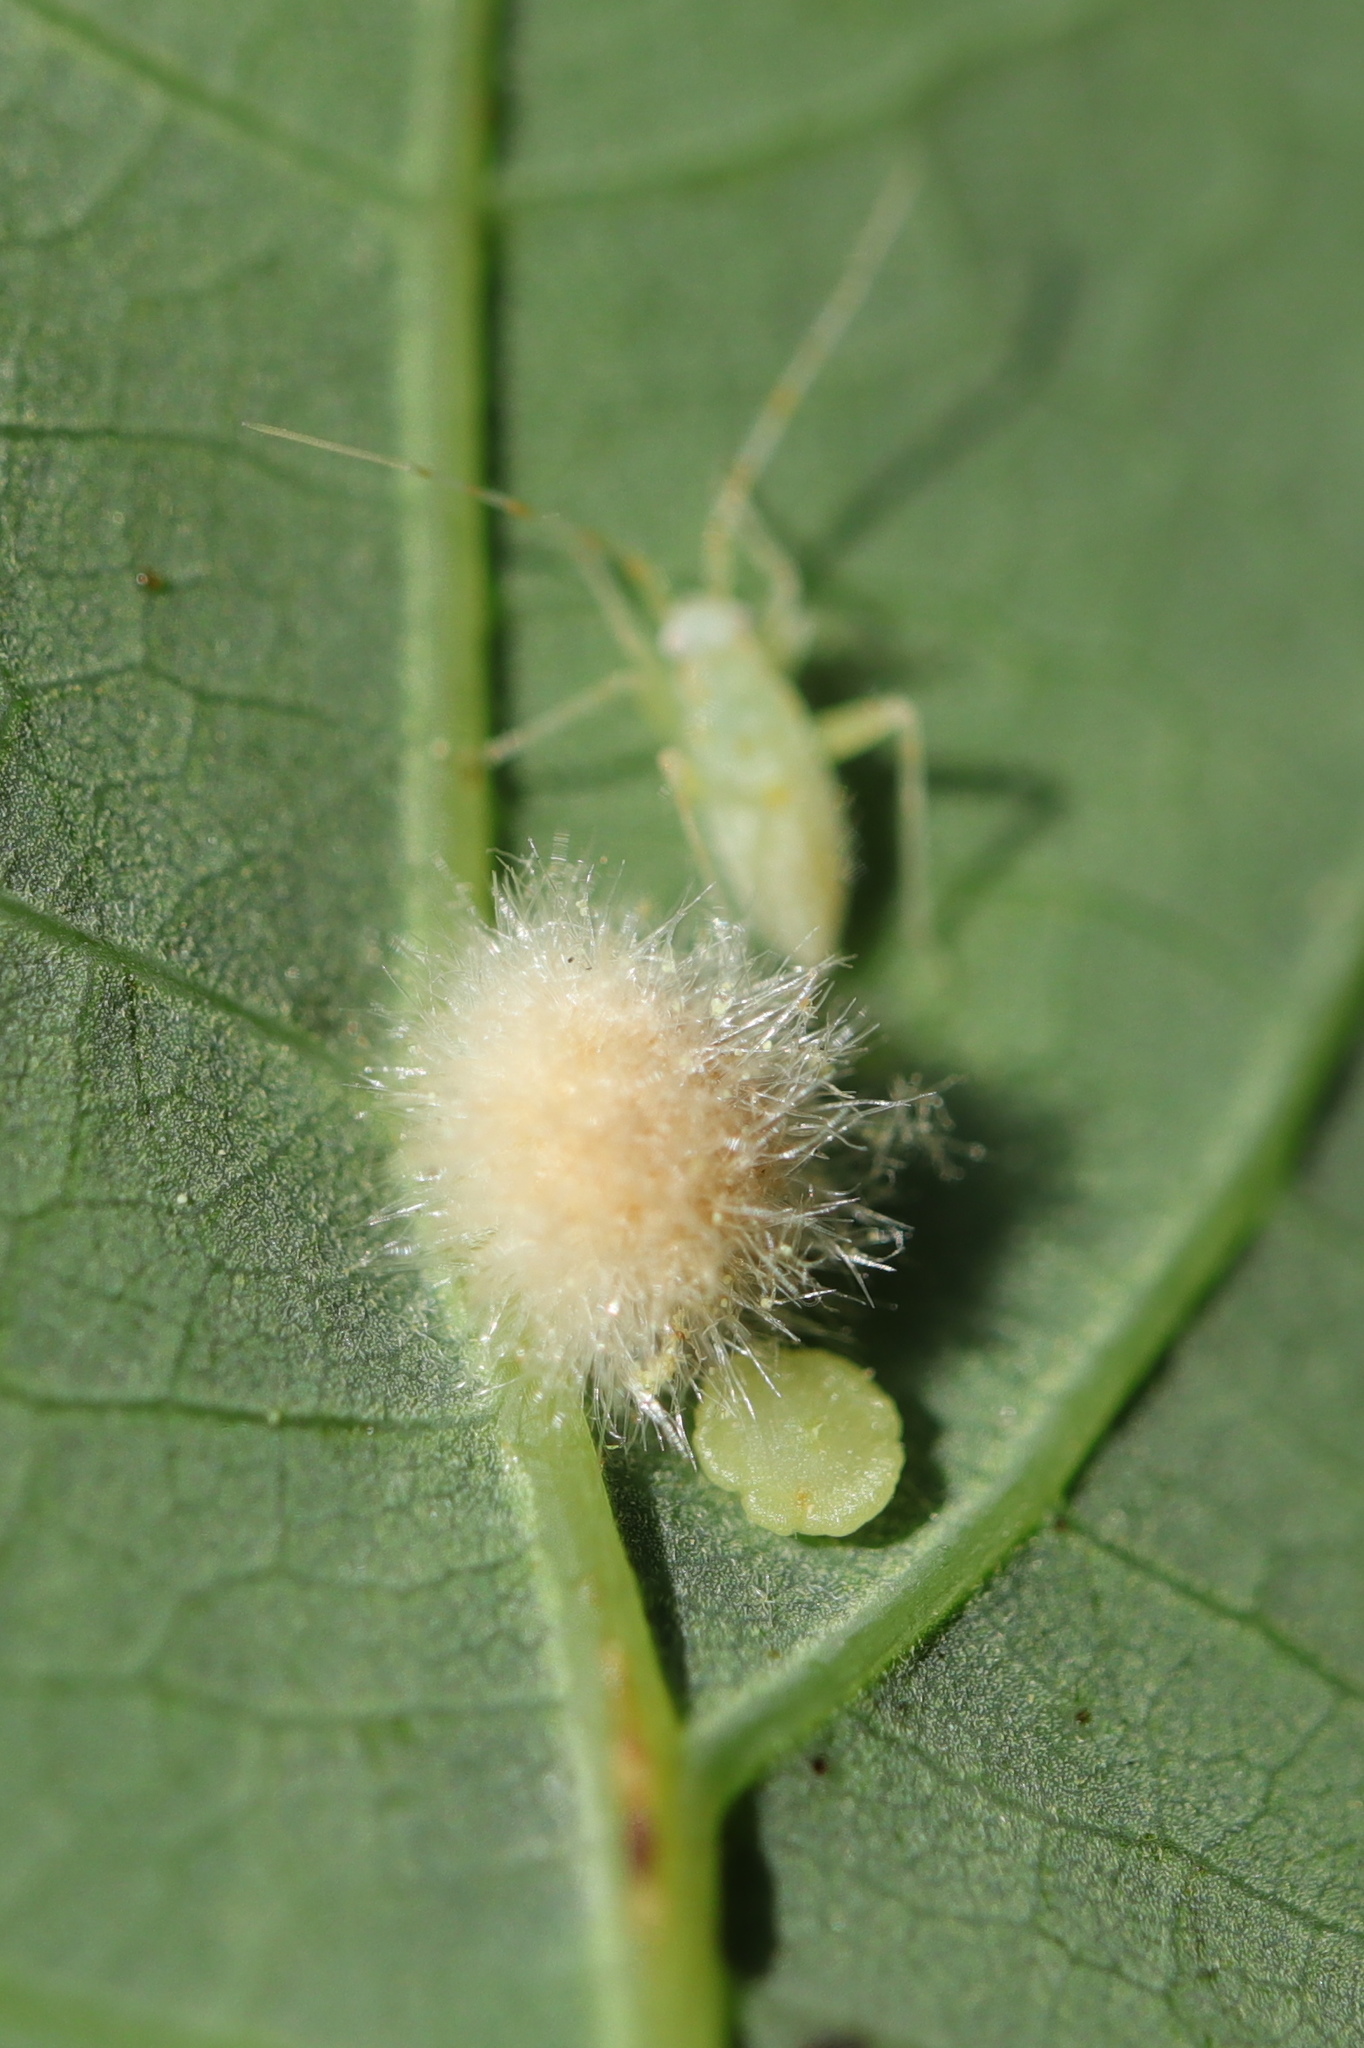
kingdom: Animalia
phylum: Arthropoda
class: Insecta
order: Hymenoptera
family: Cynipidae
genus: Neuroterus
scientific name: Neuroterus
